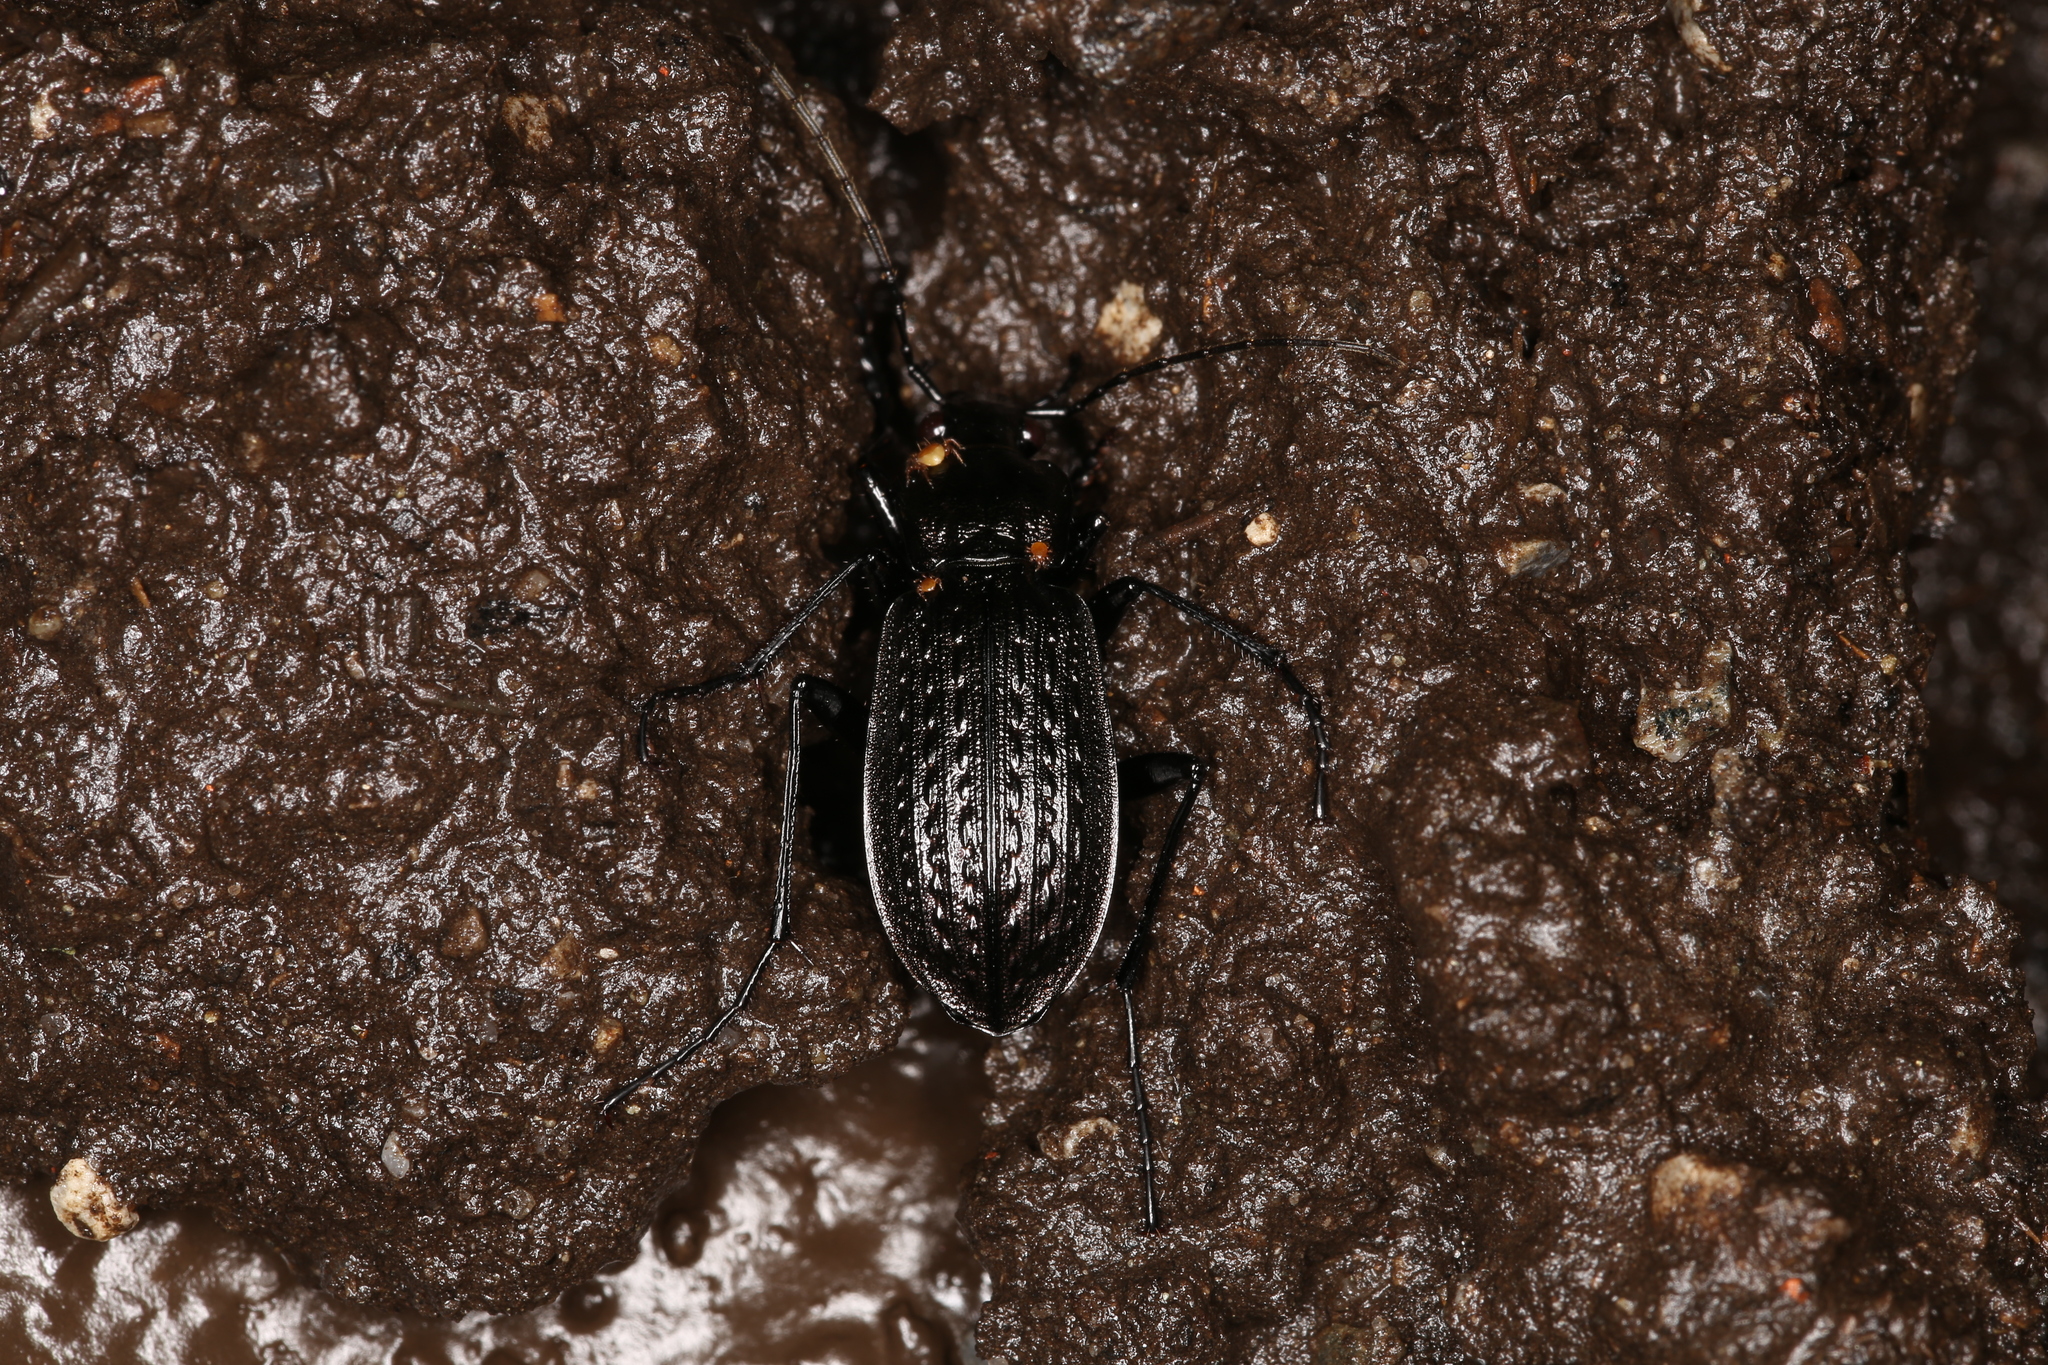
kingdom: Animalia
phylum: Arthropoda
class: Insecta
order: Coleoptera
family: Carabidae
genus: Carabus
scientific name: Carabus granulatus
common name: Granulate ground beetle
